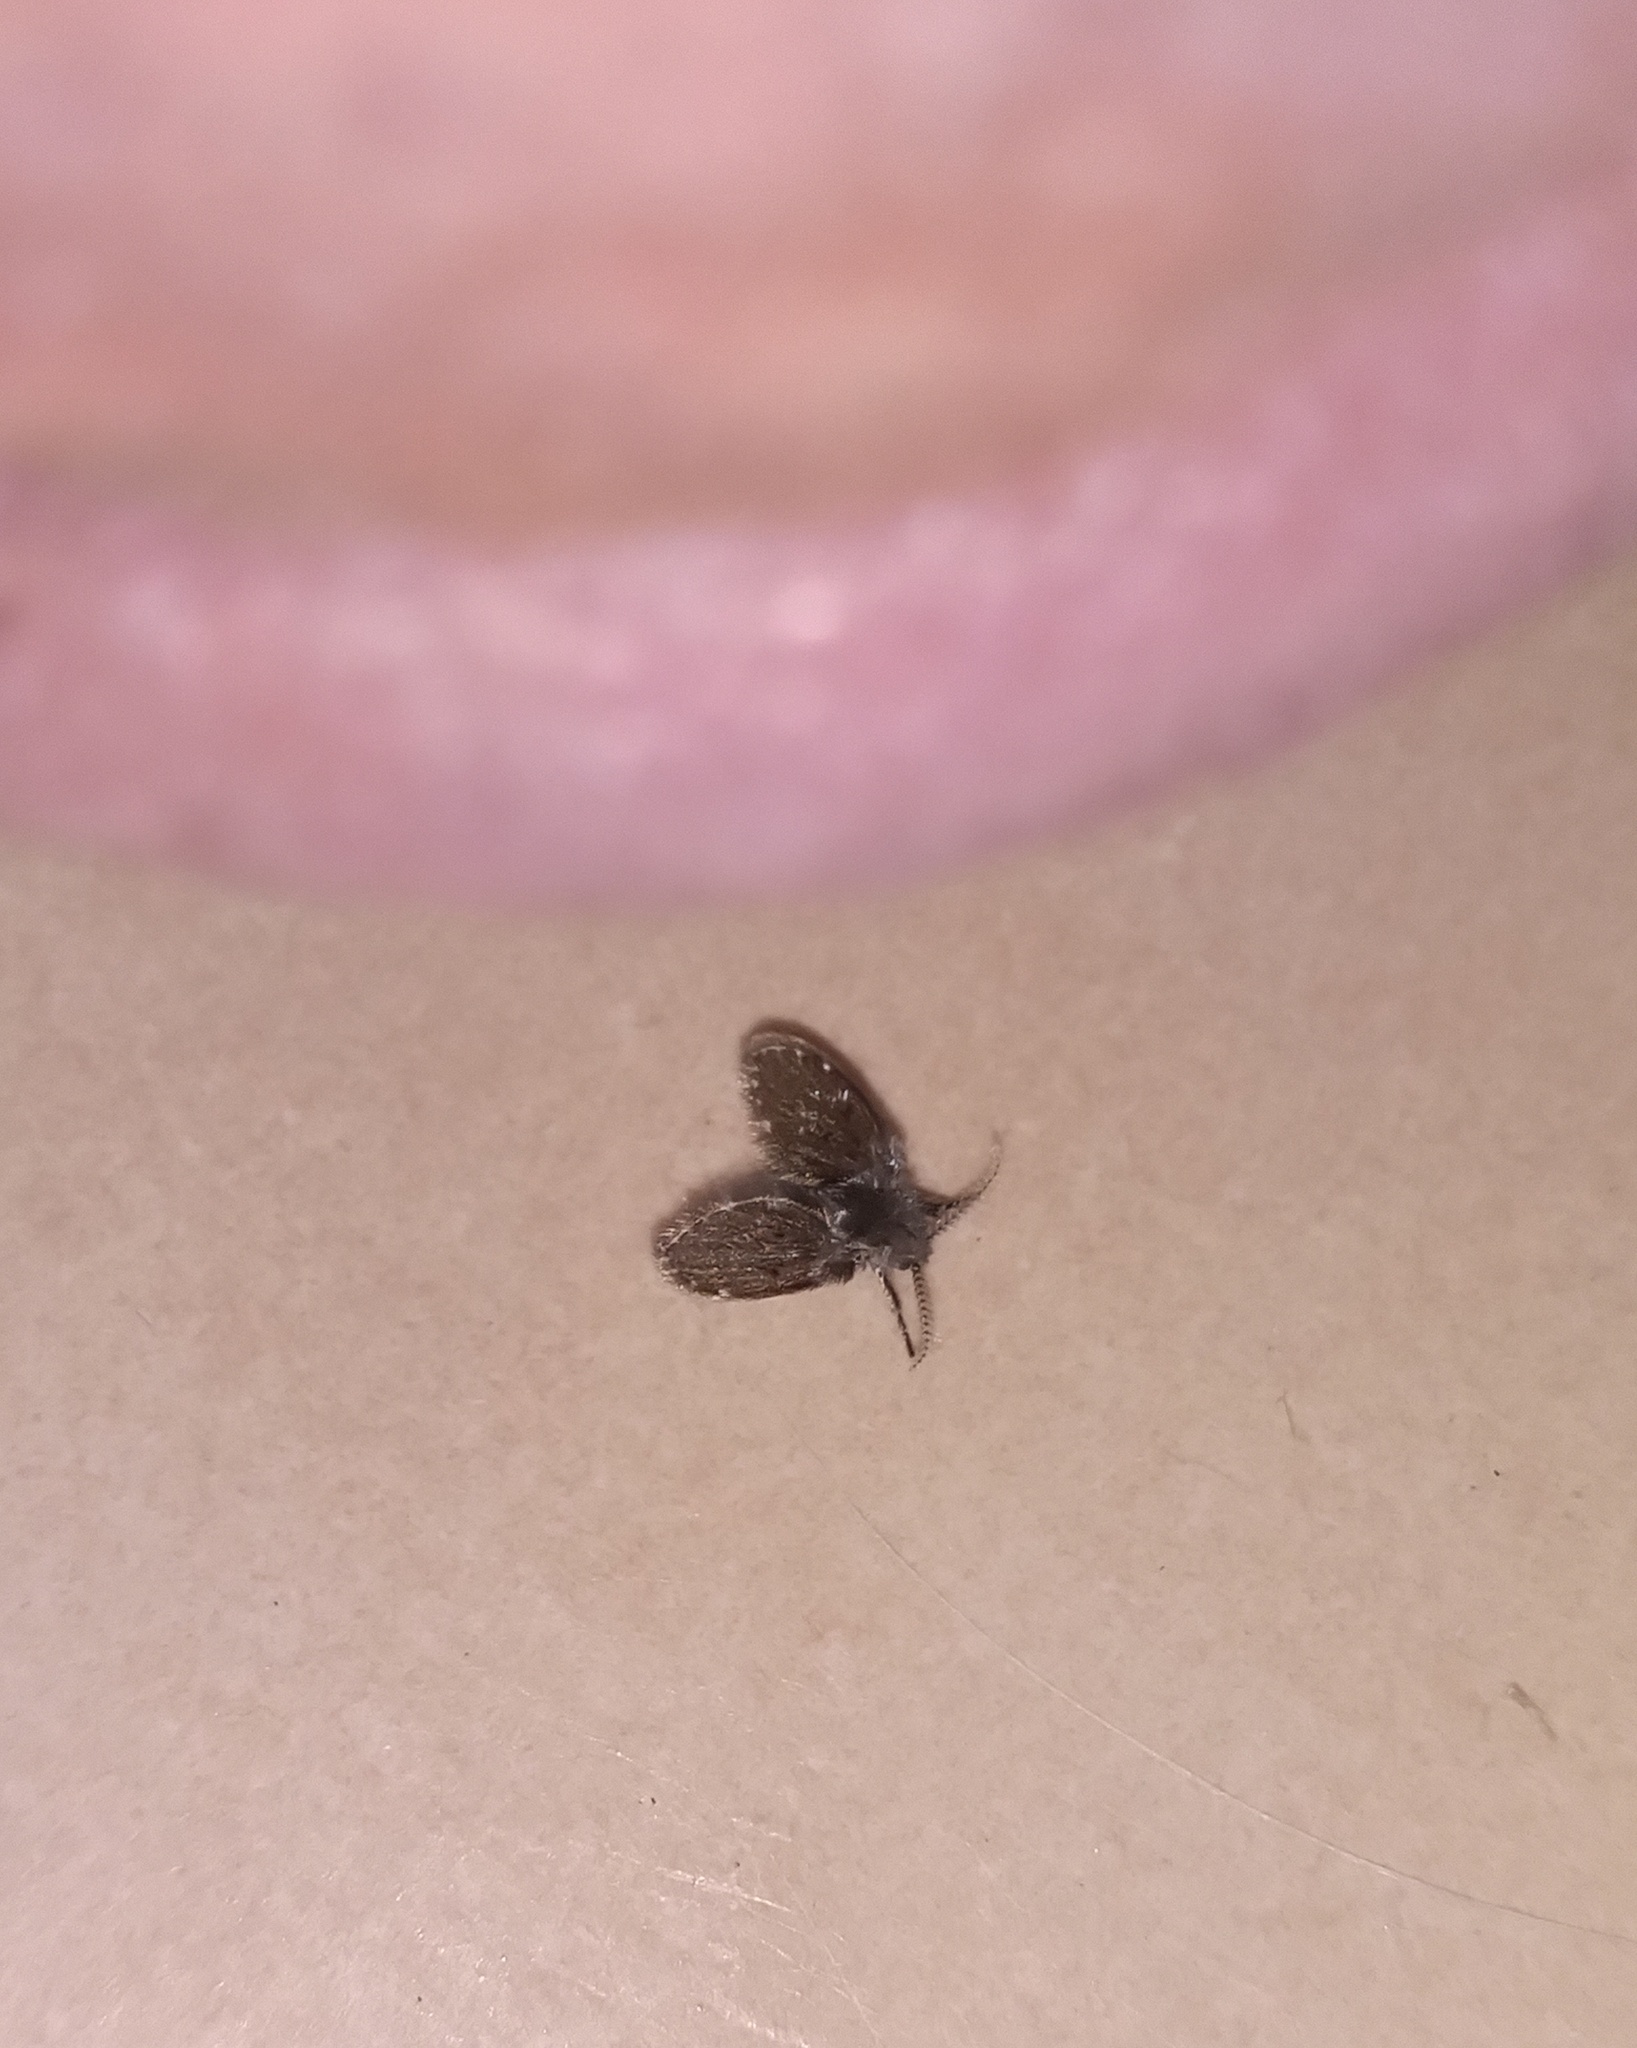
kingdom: Animalia
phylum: Arthropoda
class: Insecta
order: Diptera
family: Psychodidae
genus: Clogmia
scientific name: Clogmia albipunctatus
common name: White-spotted moth fly
